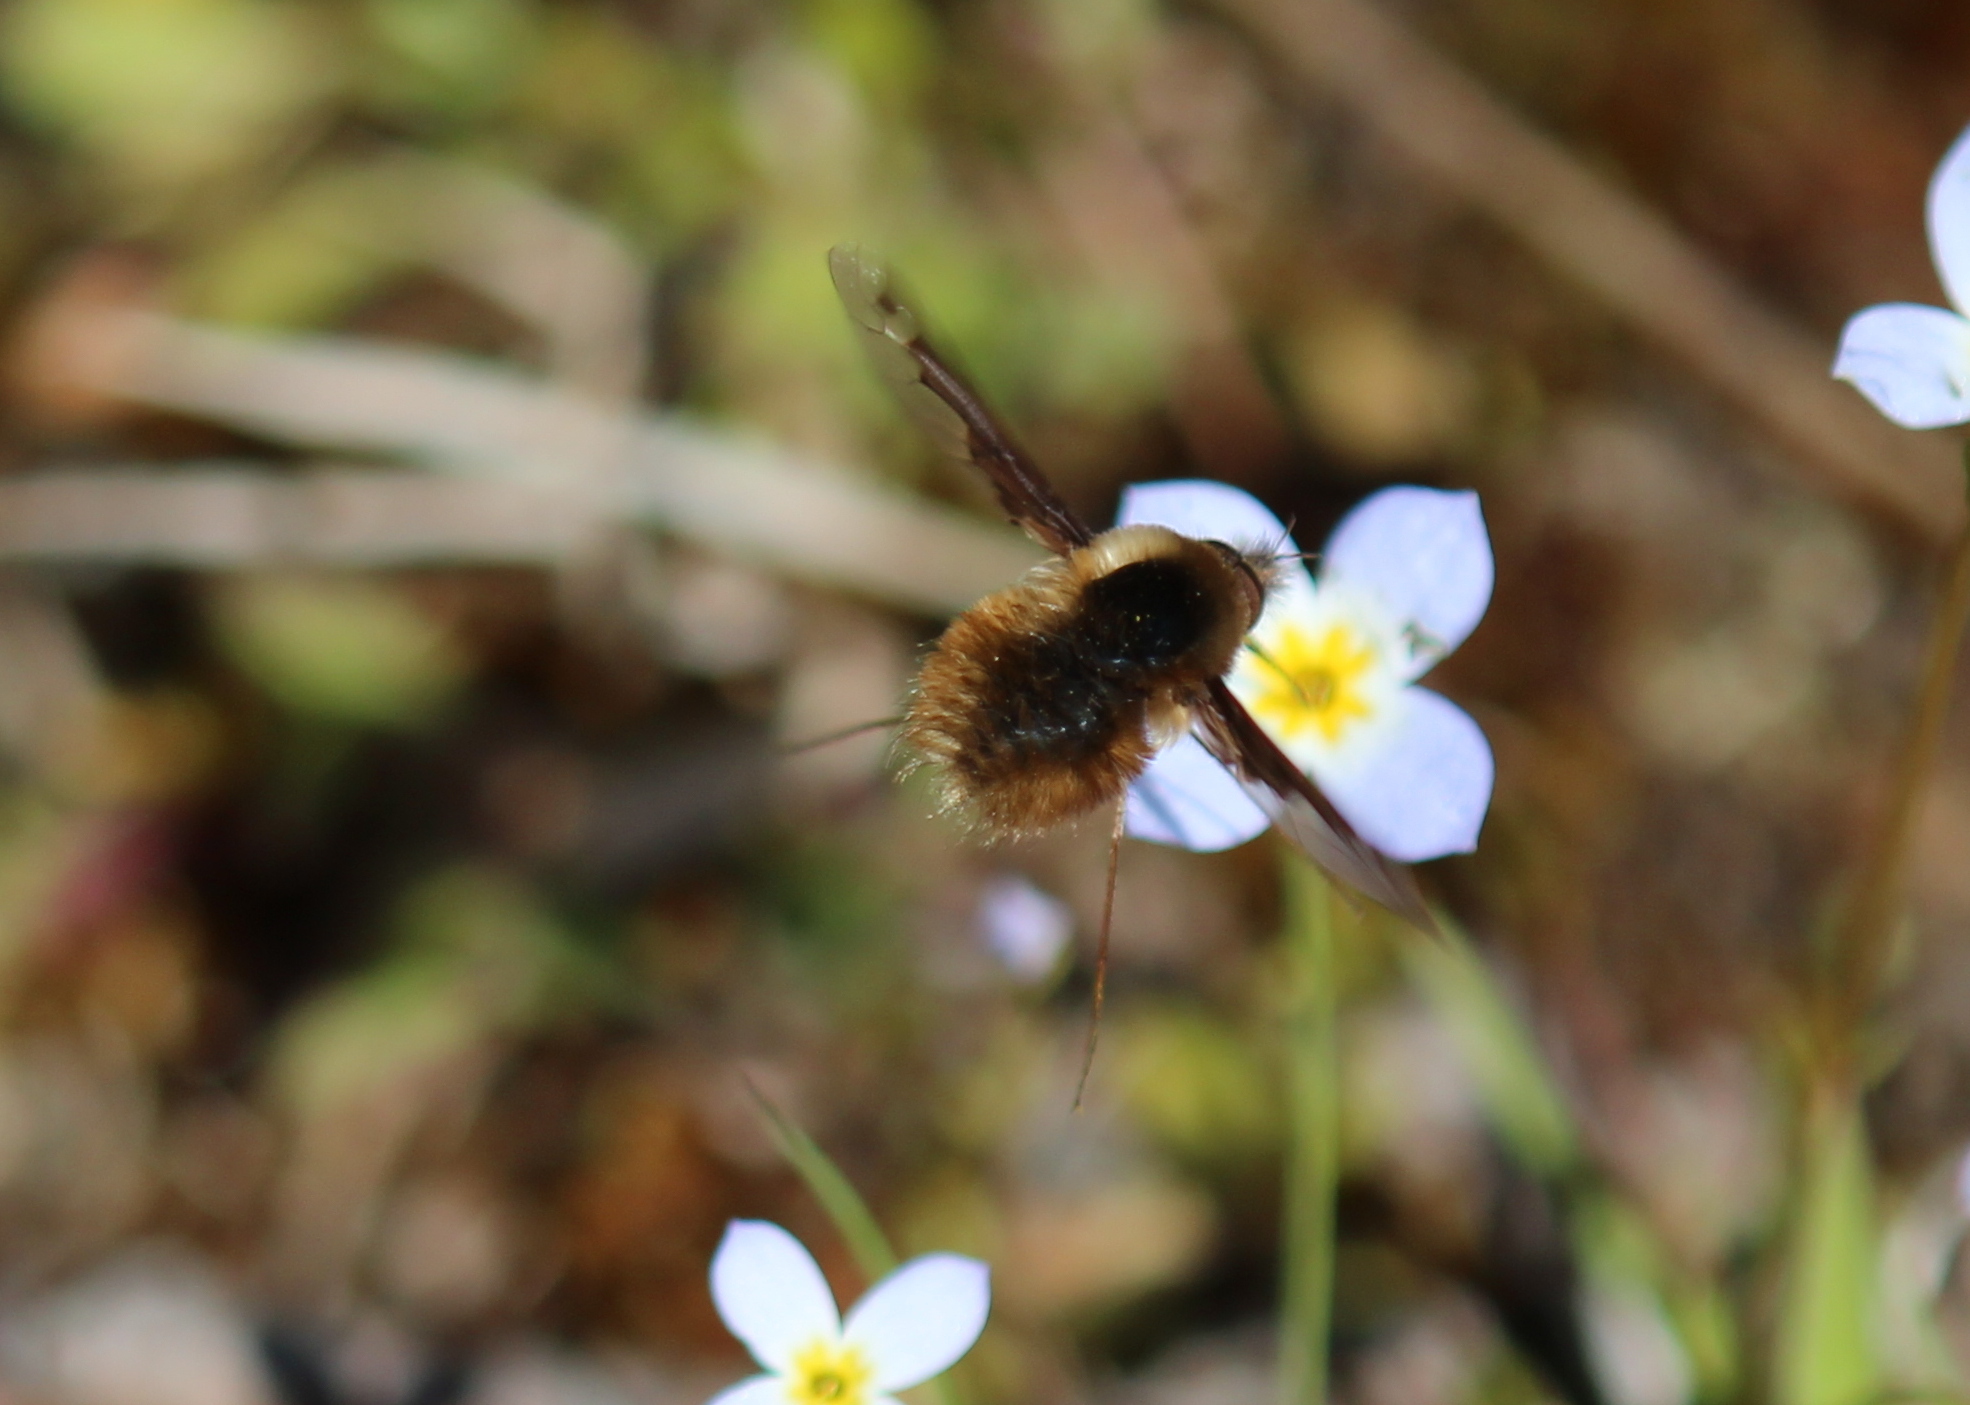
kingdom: Animalia
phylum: Arthropoda
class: Insecta
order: Diptera
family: Bombyliidae
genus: Bombylius
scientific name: Bombylius major
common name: Bee fly
